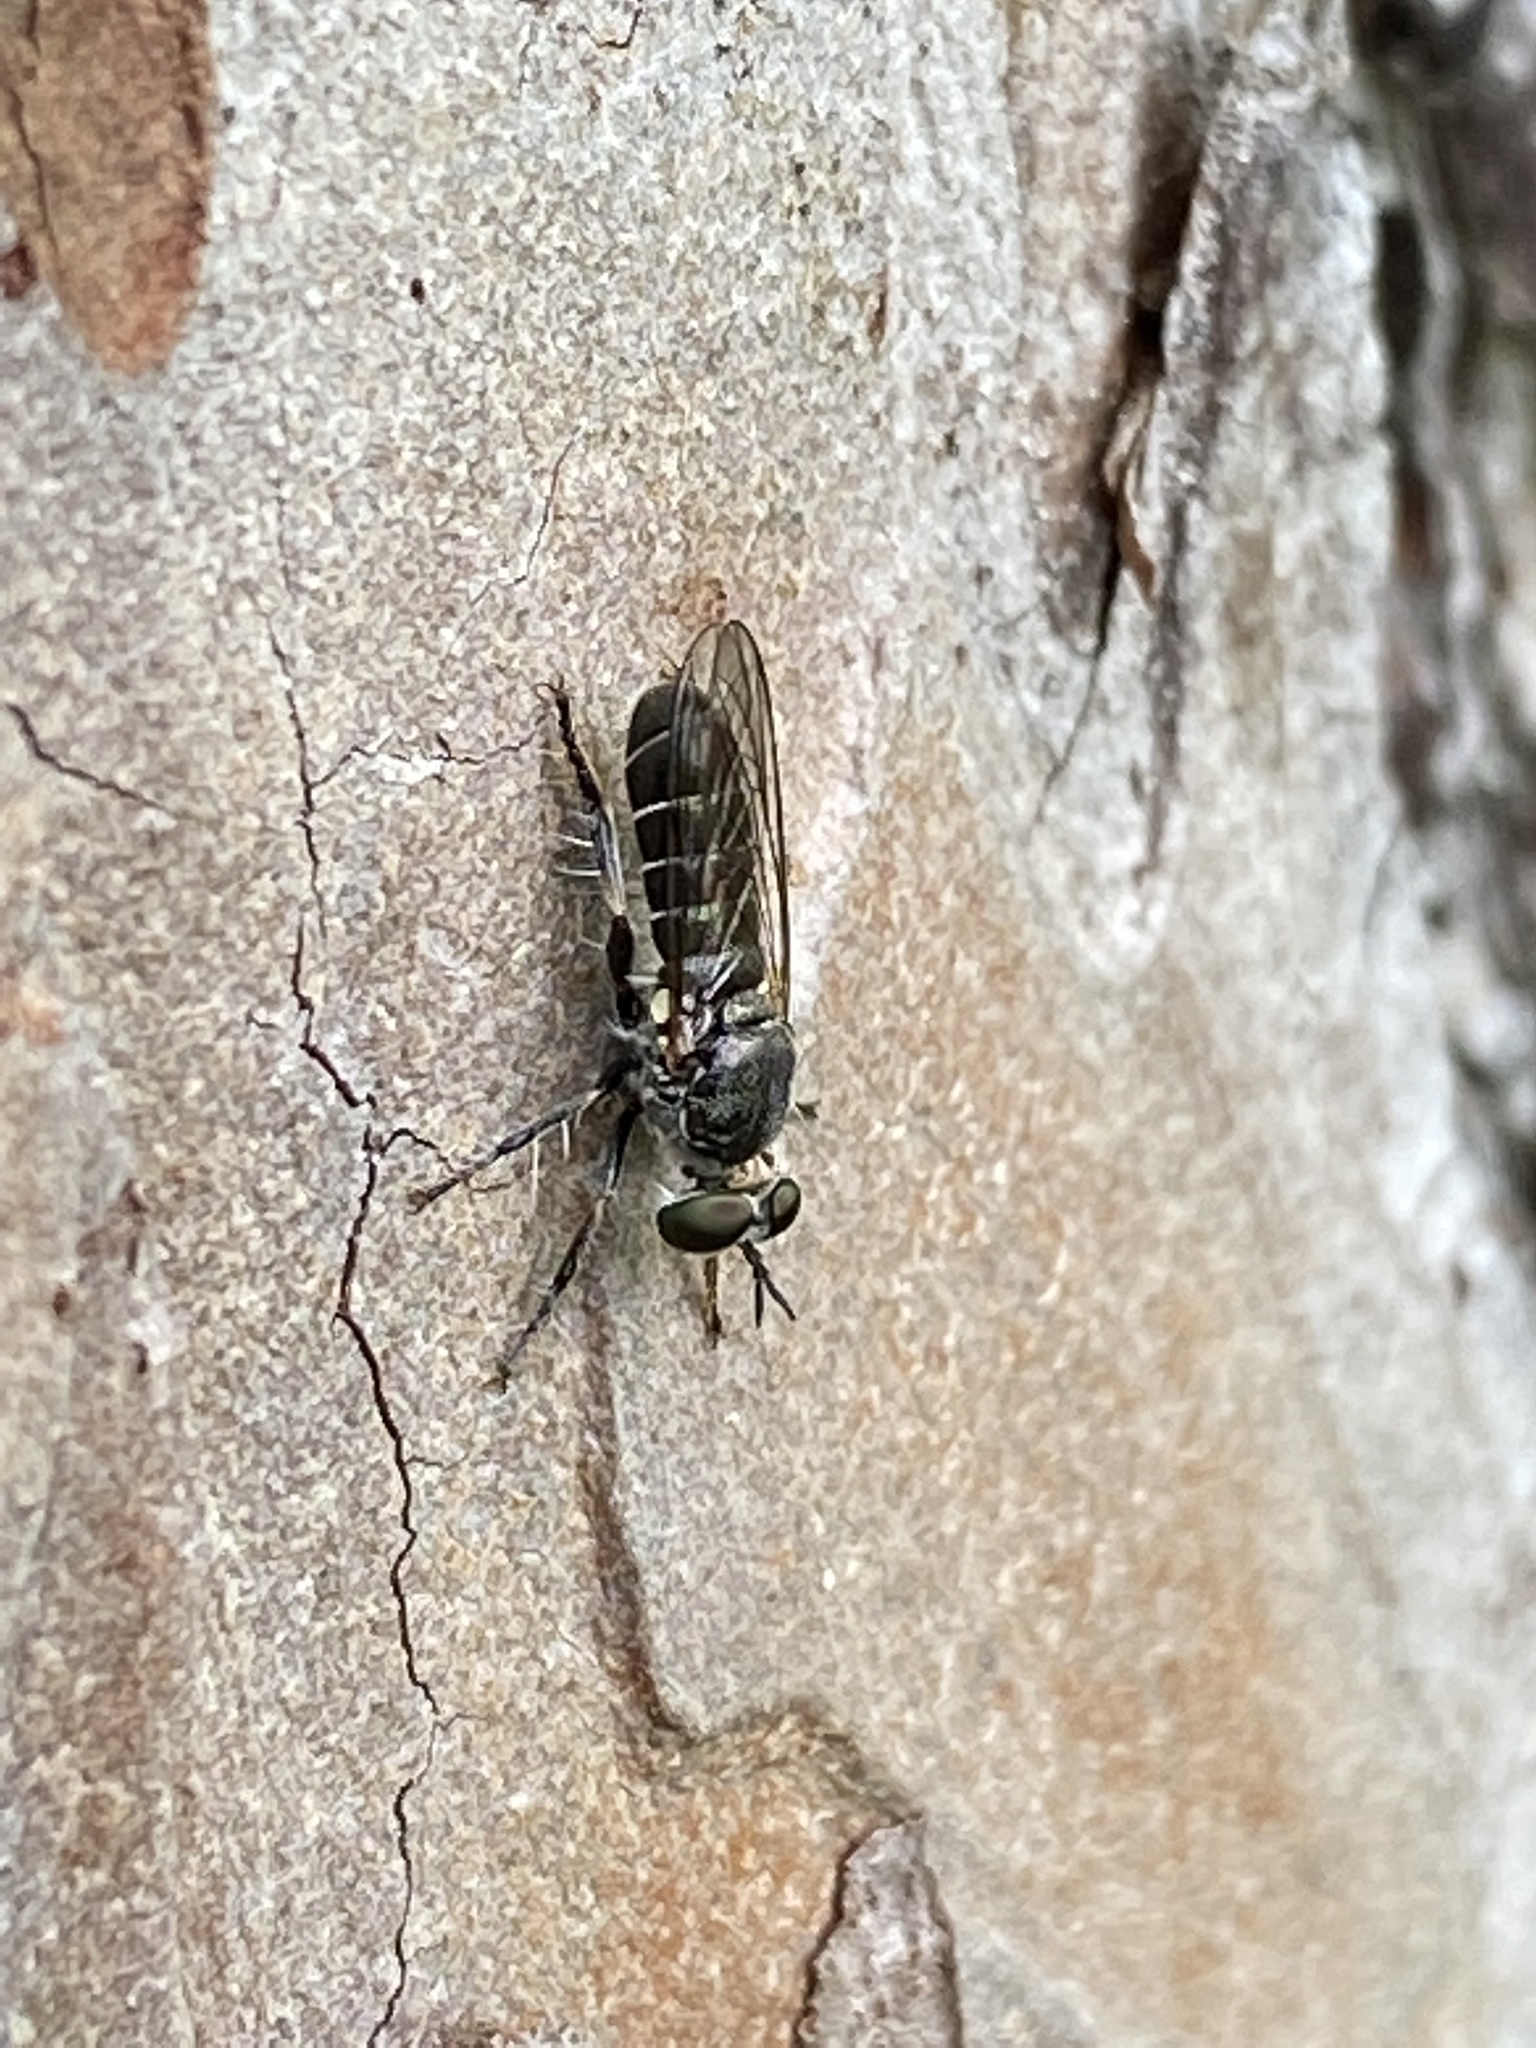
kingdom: Animalia
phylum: Arthropoda
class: Insecta
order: Diptera
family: Asilidae
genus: Atomosia
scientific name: Atomosia puella
